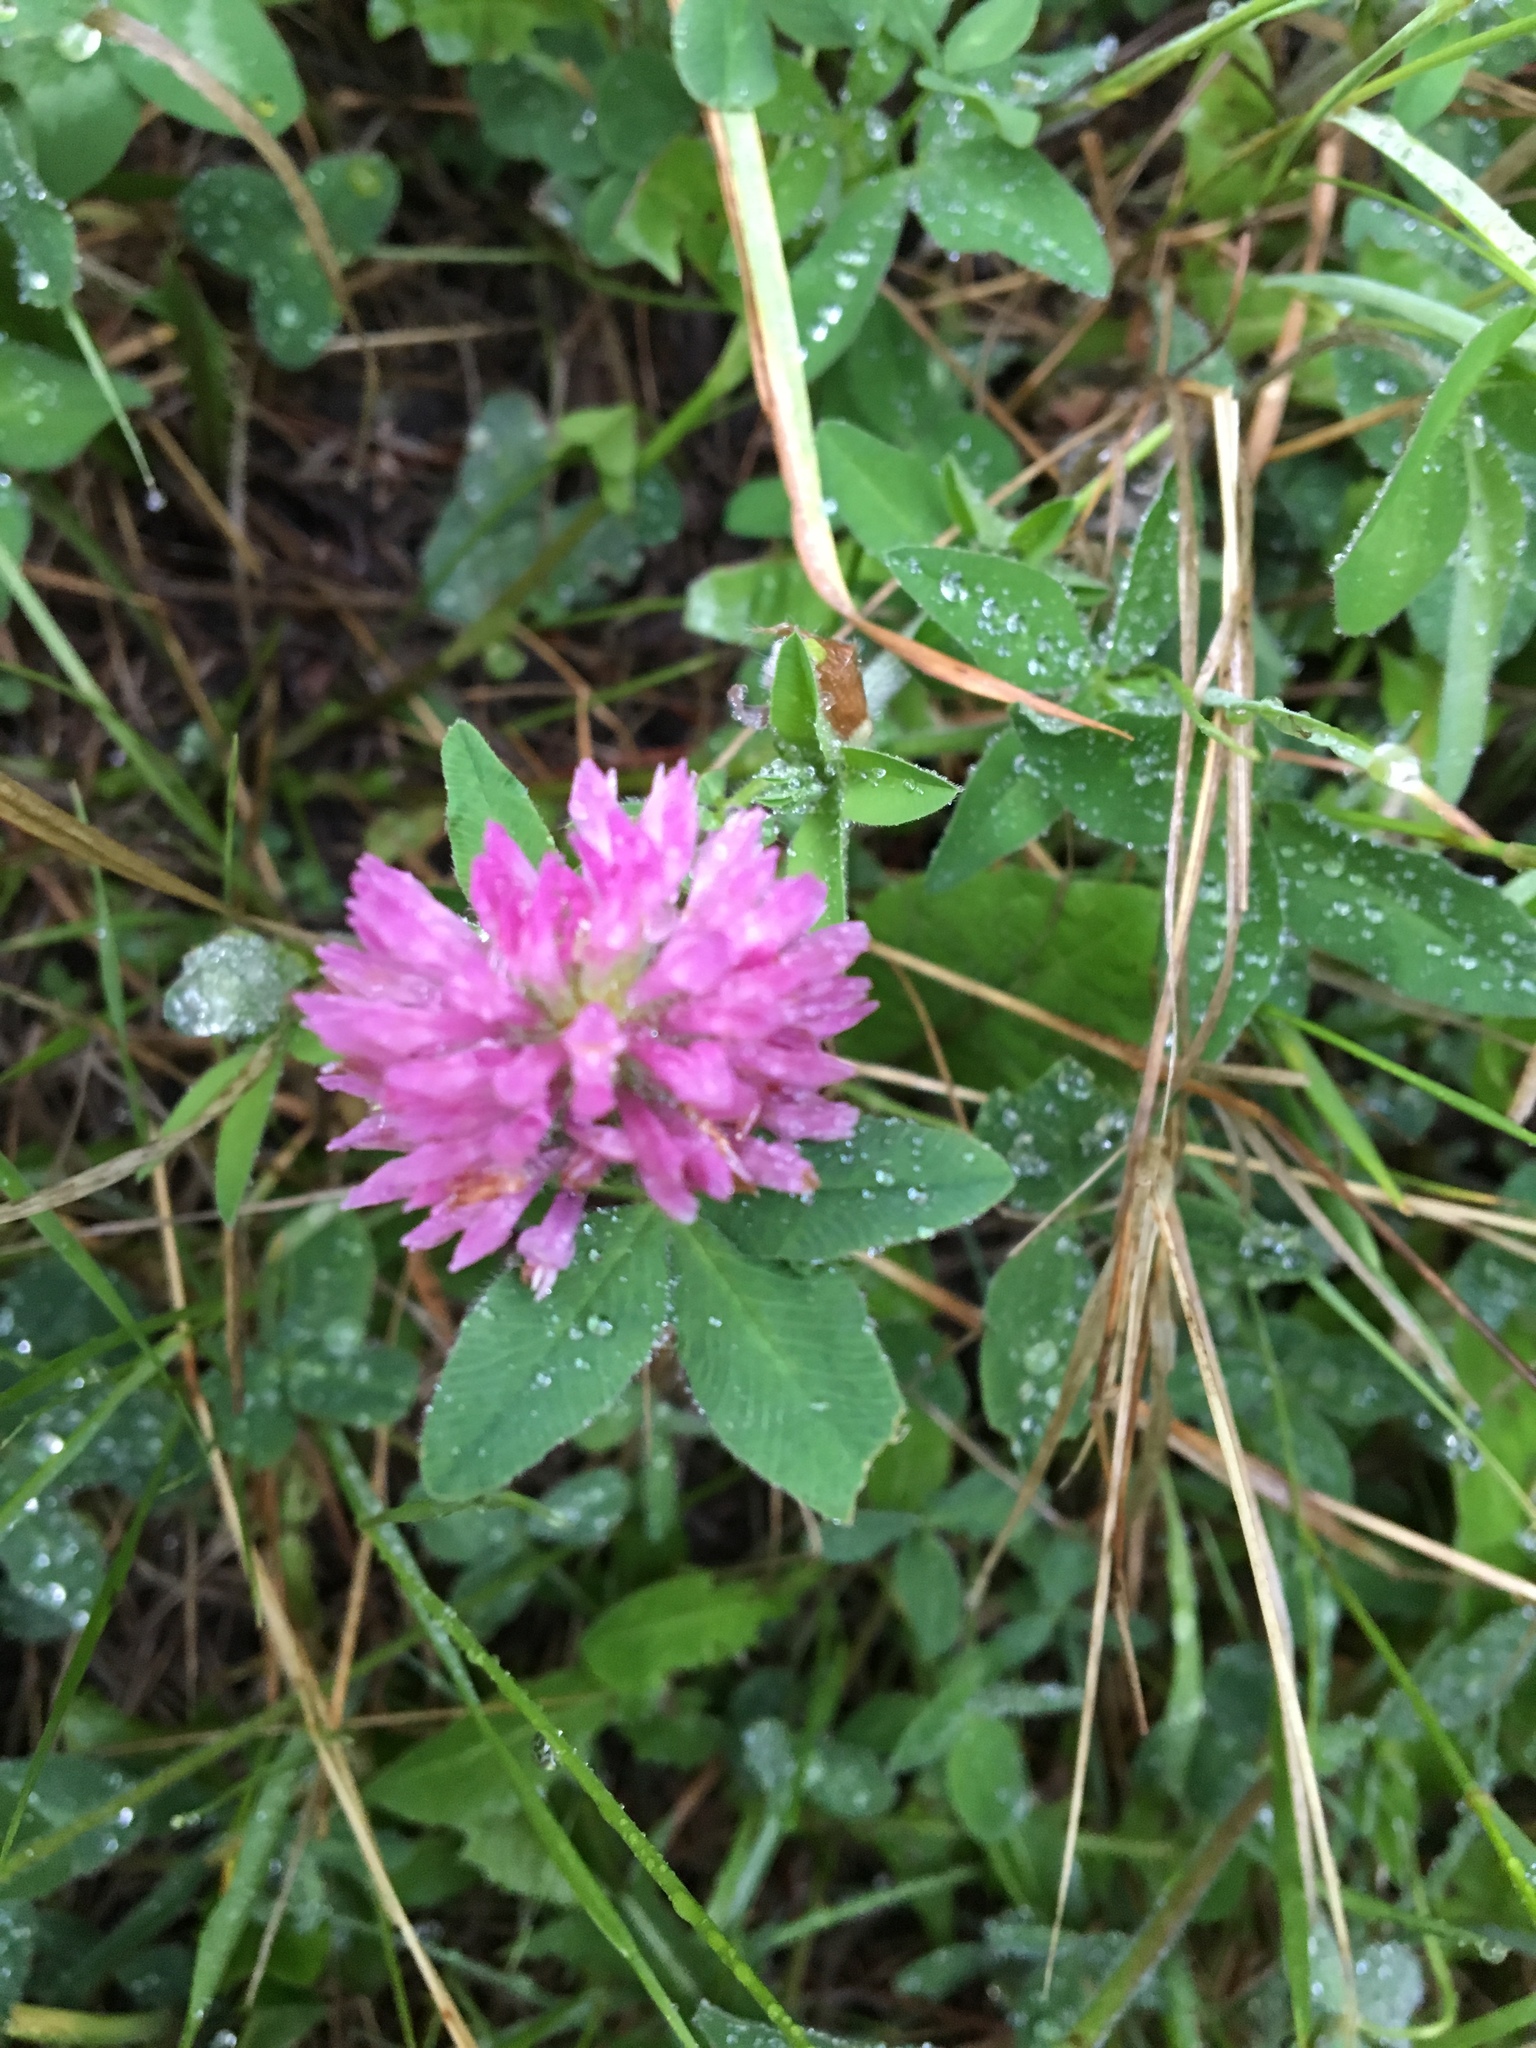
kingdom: Plantae
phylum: Tracheophyta
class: Magnoliopsida
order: Fabales
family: Fabaceae
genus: Trifolium
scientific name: Trifolium pratense
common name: Red clover
